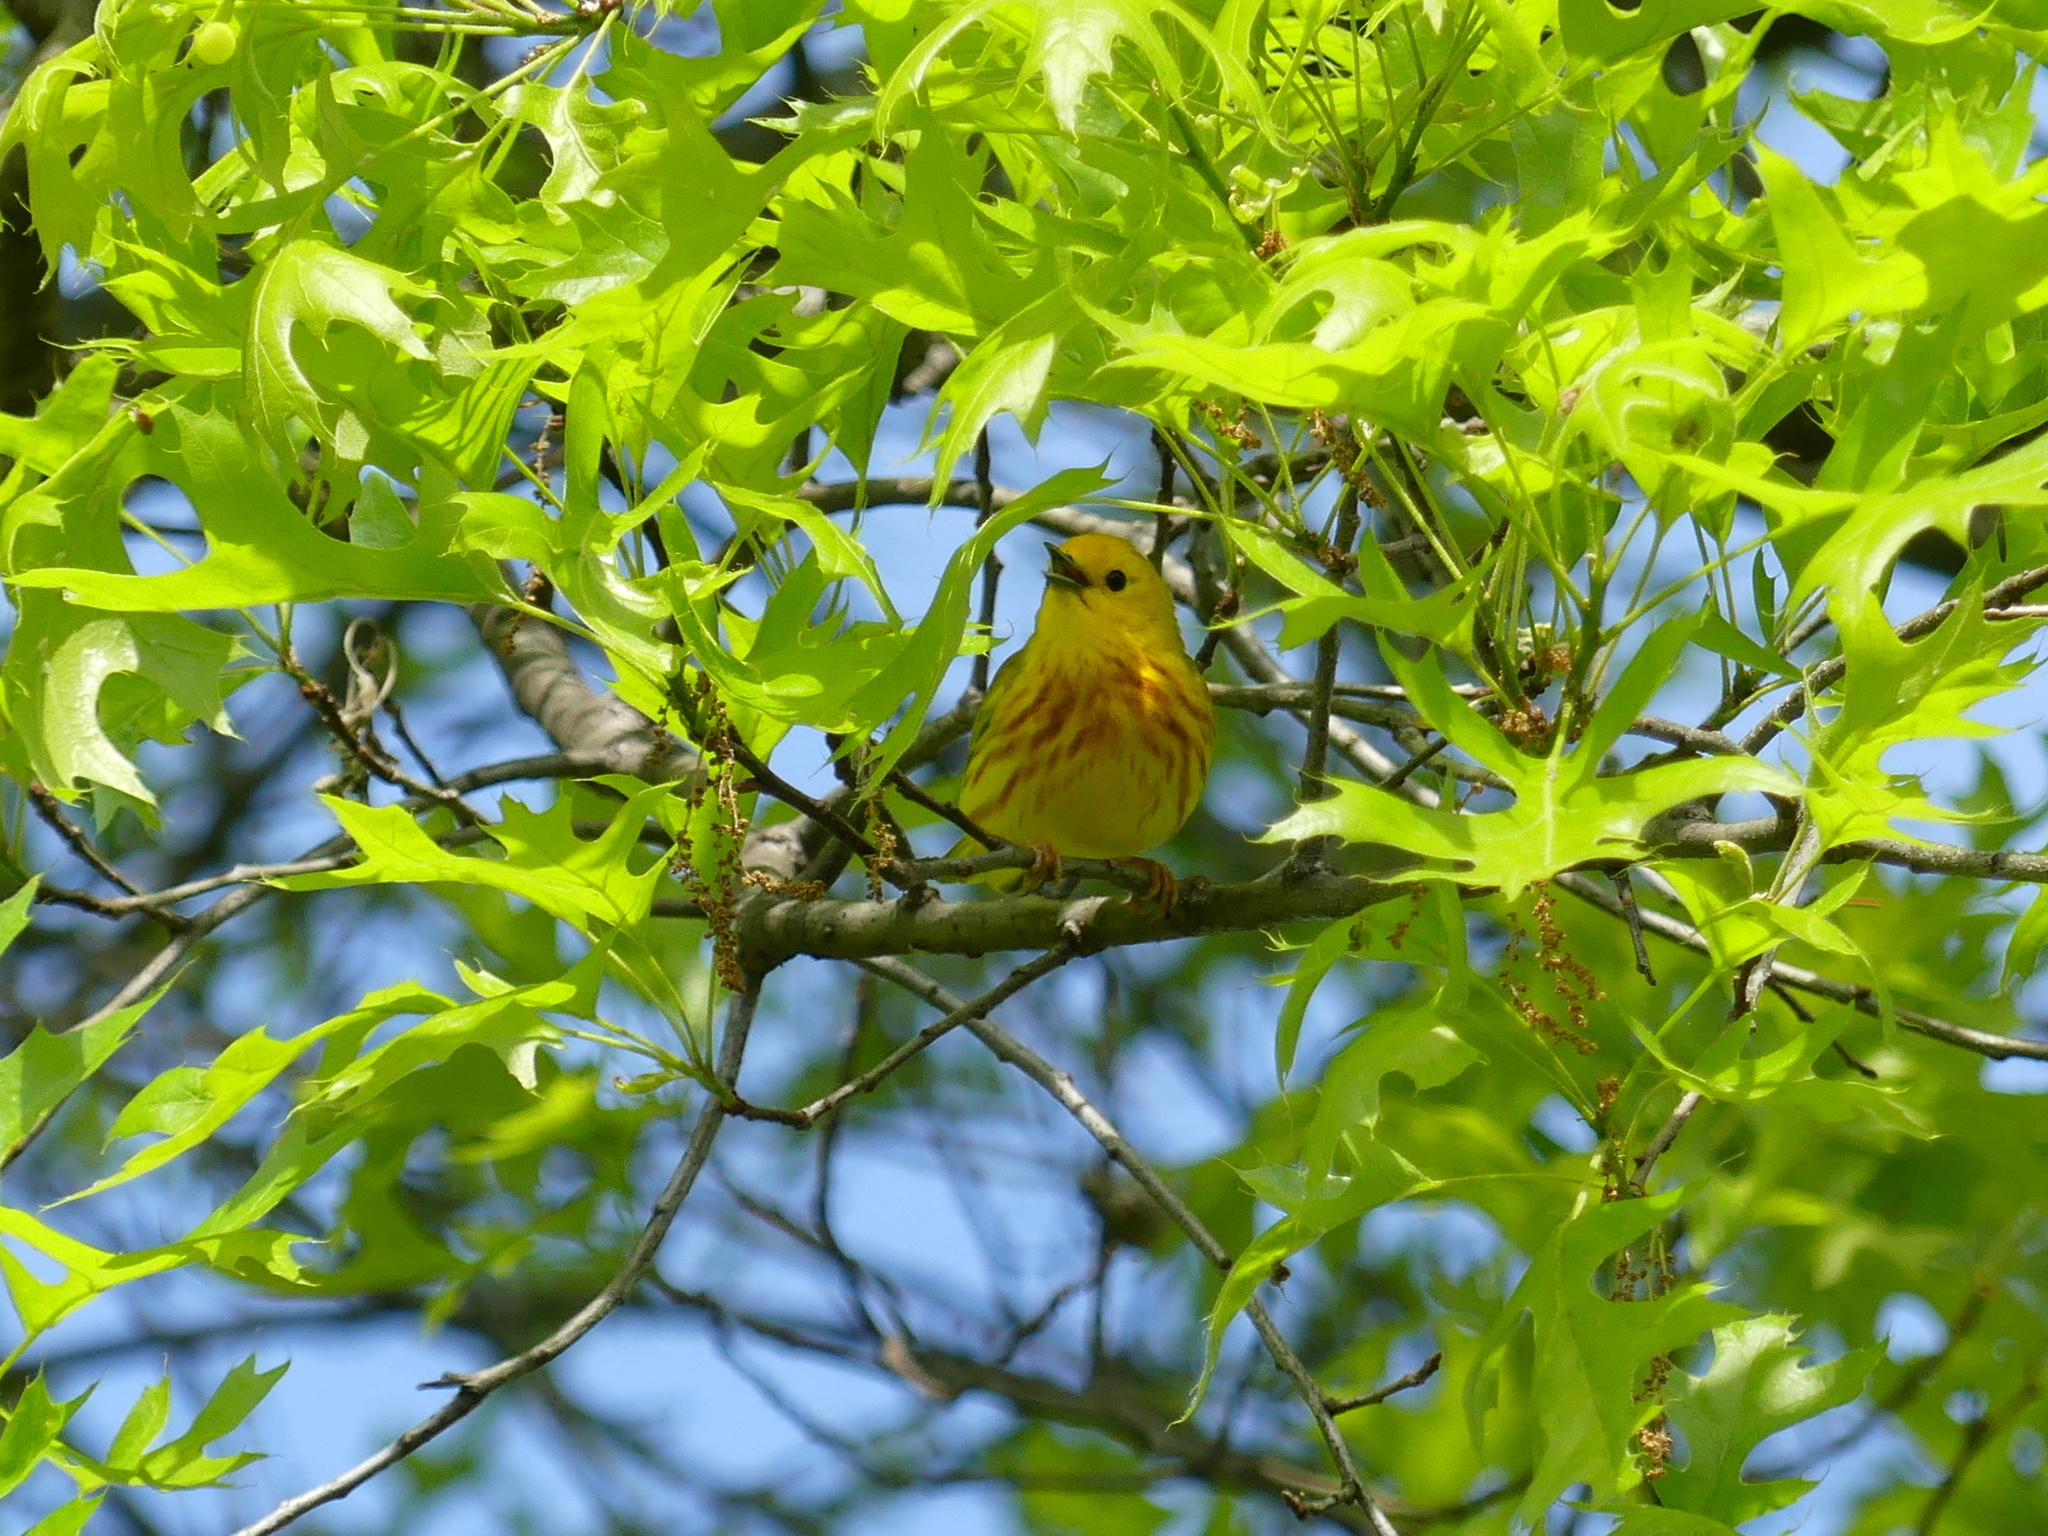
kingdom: Animalia
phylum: Chordata
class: Aves
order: Passeriformes
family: Parulidae
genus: Setophaga
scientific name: Setophaga petechia
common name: Yellow warbler
